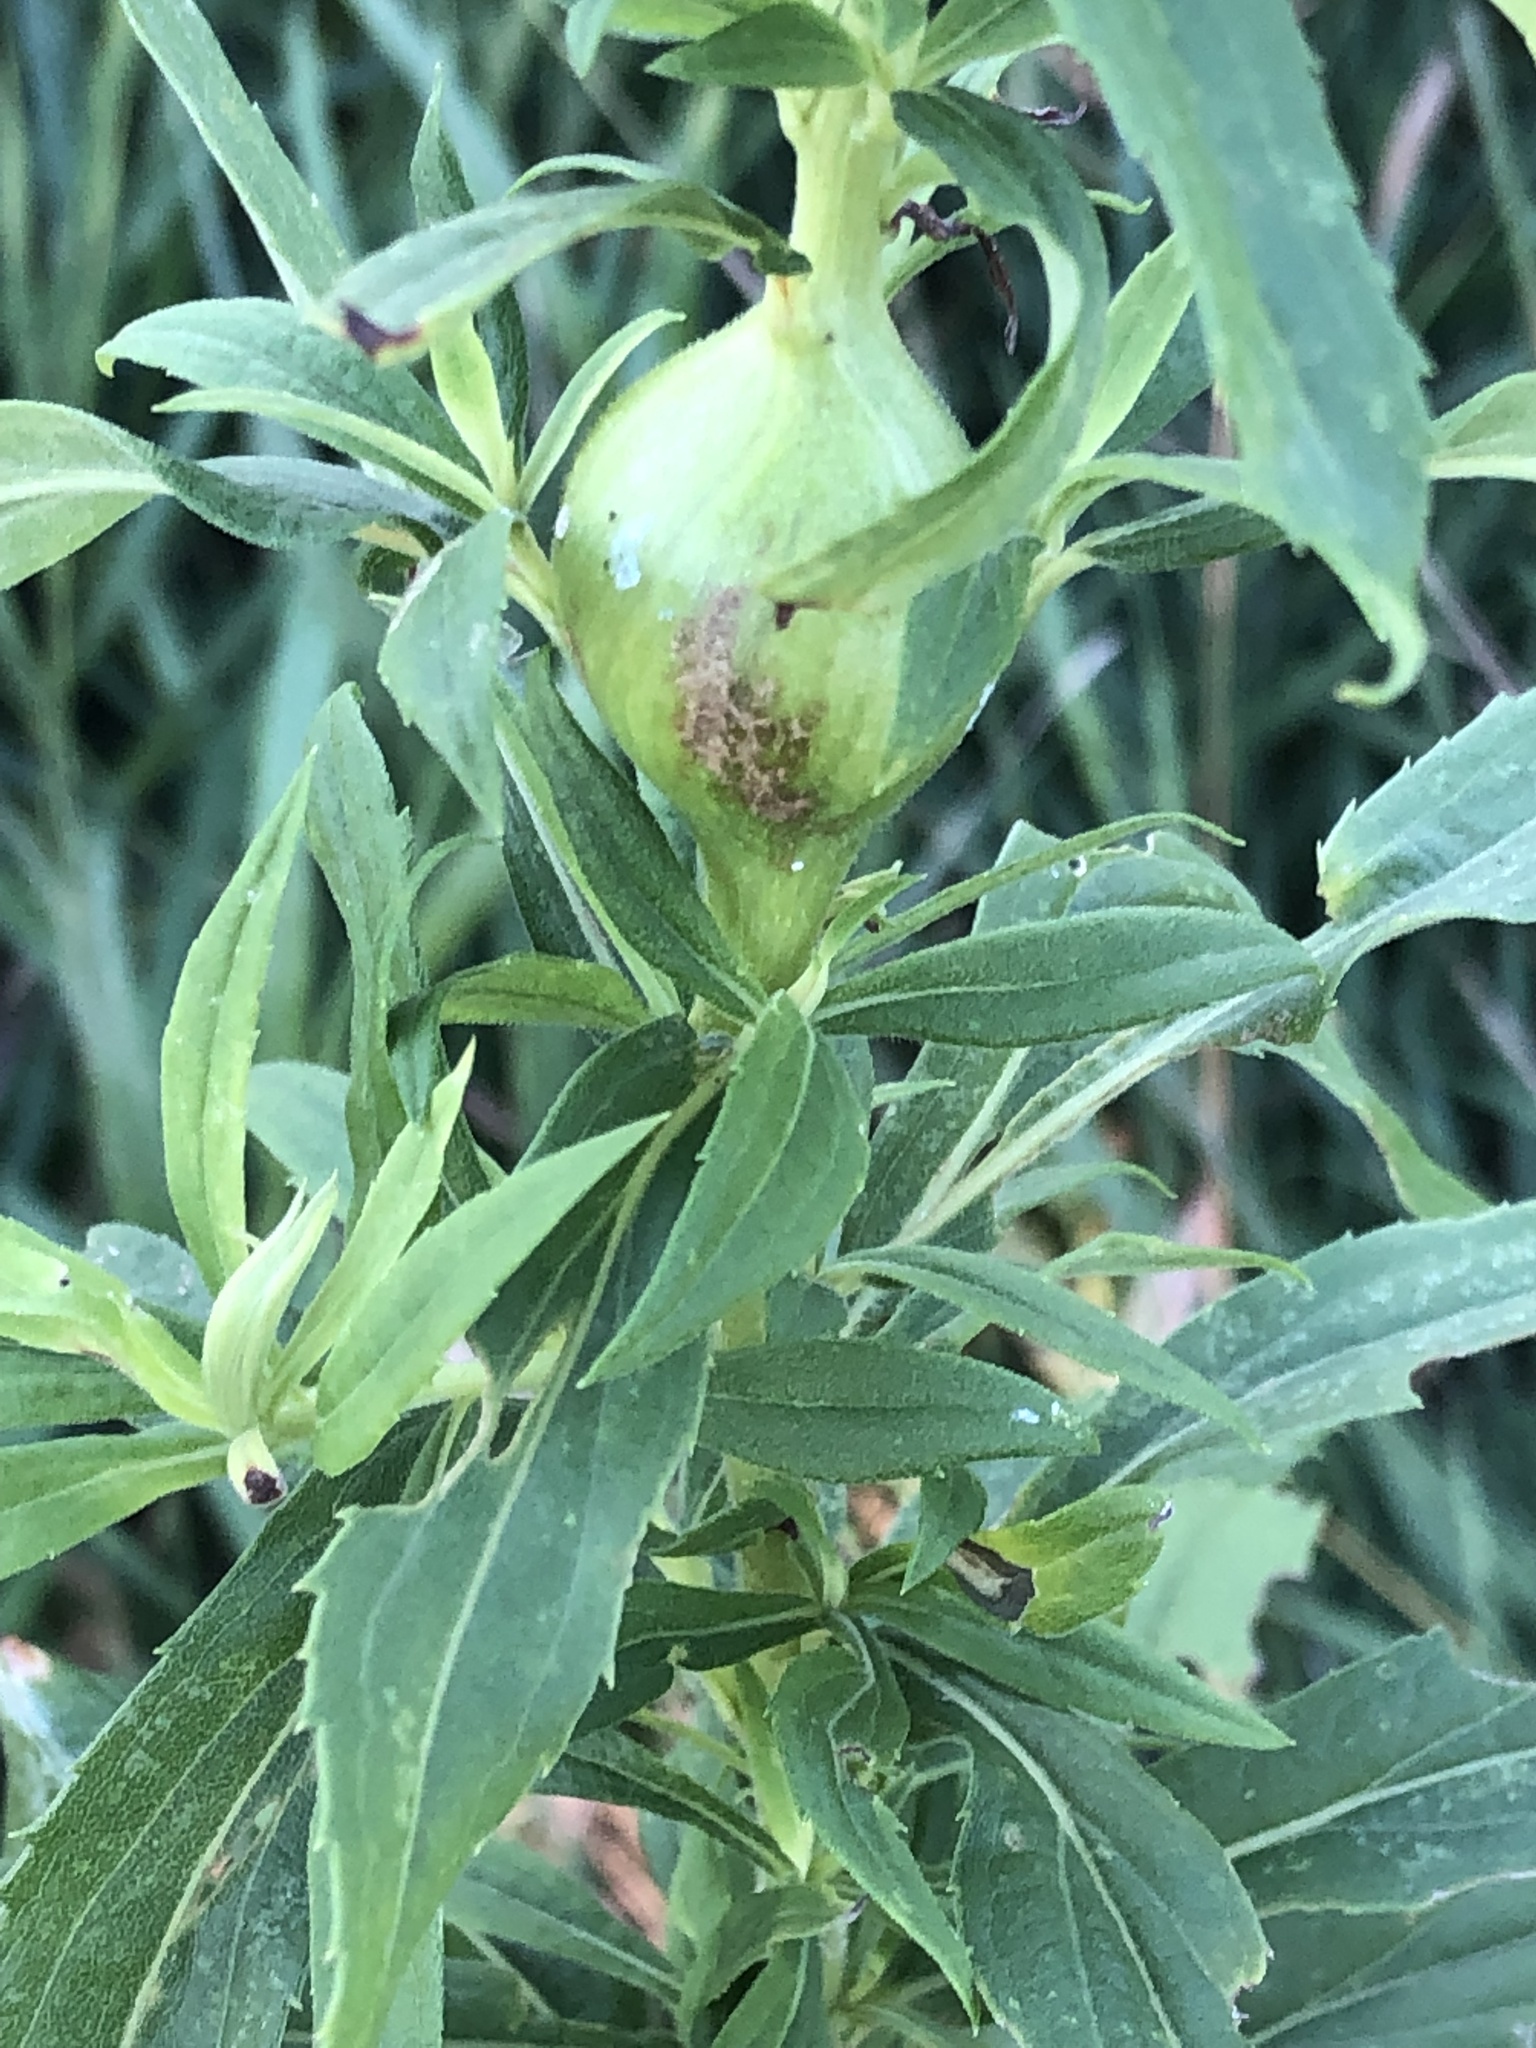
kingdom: Animalia
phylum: Arthropoda
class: Insecta
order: Diptera
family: Tephritidae
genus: Eurosta
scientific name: Eurosta solidaginis
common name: Goldenrod gall fly
